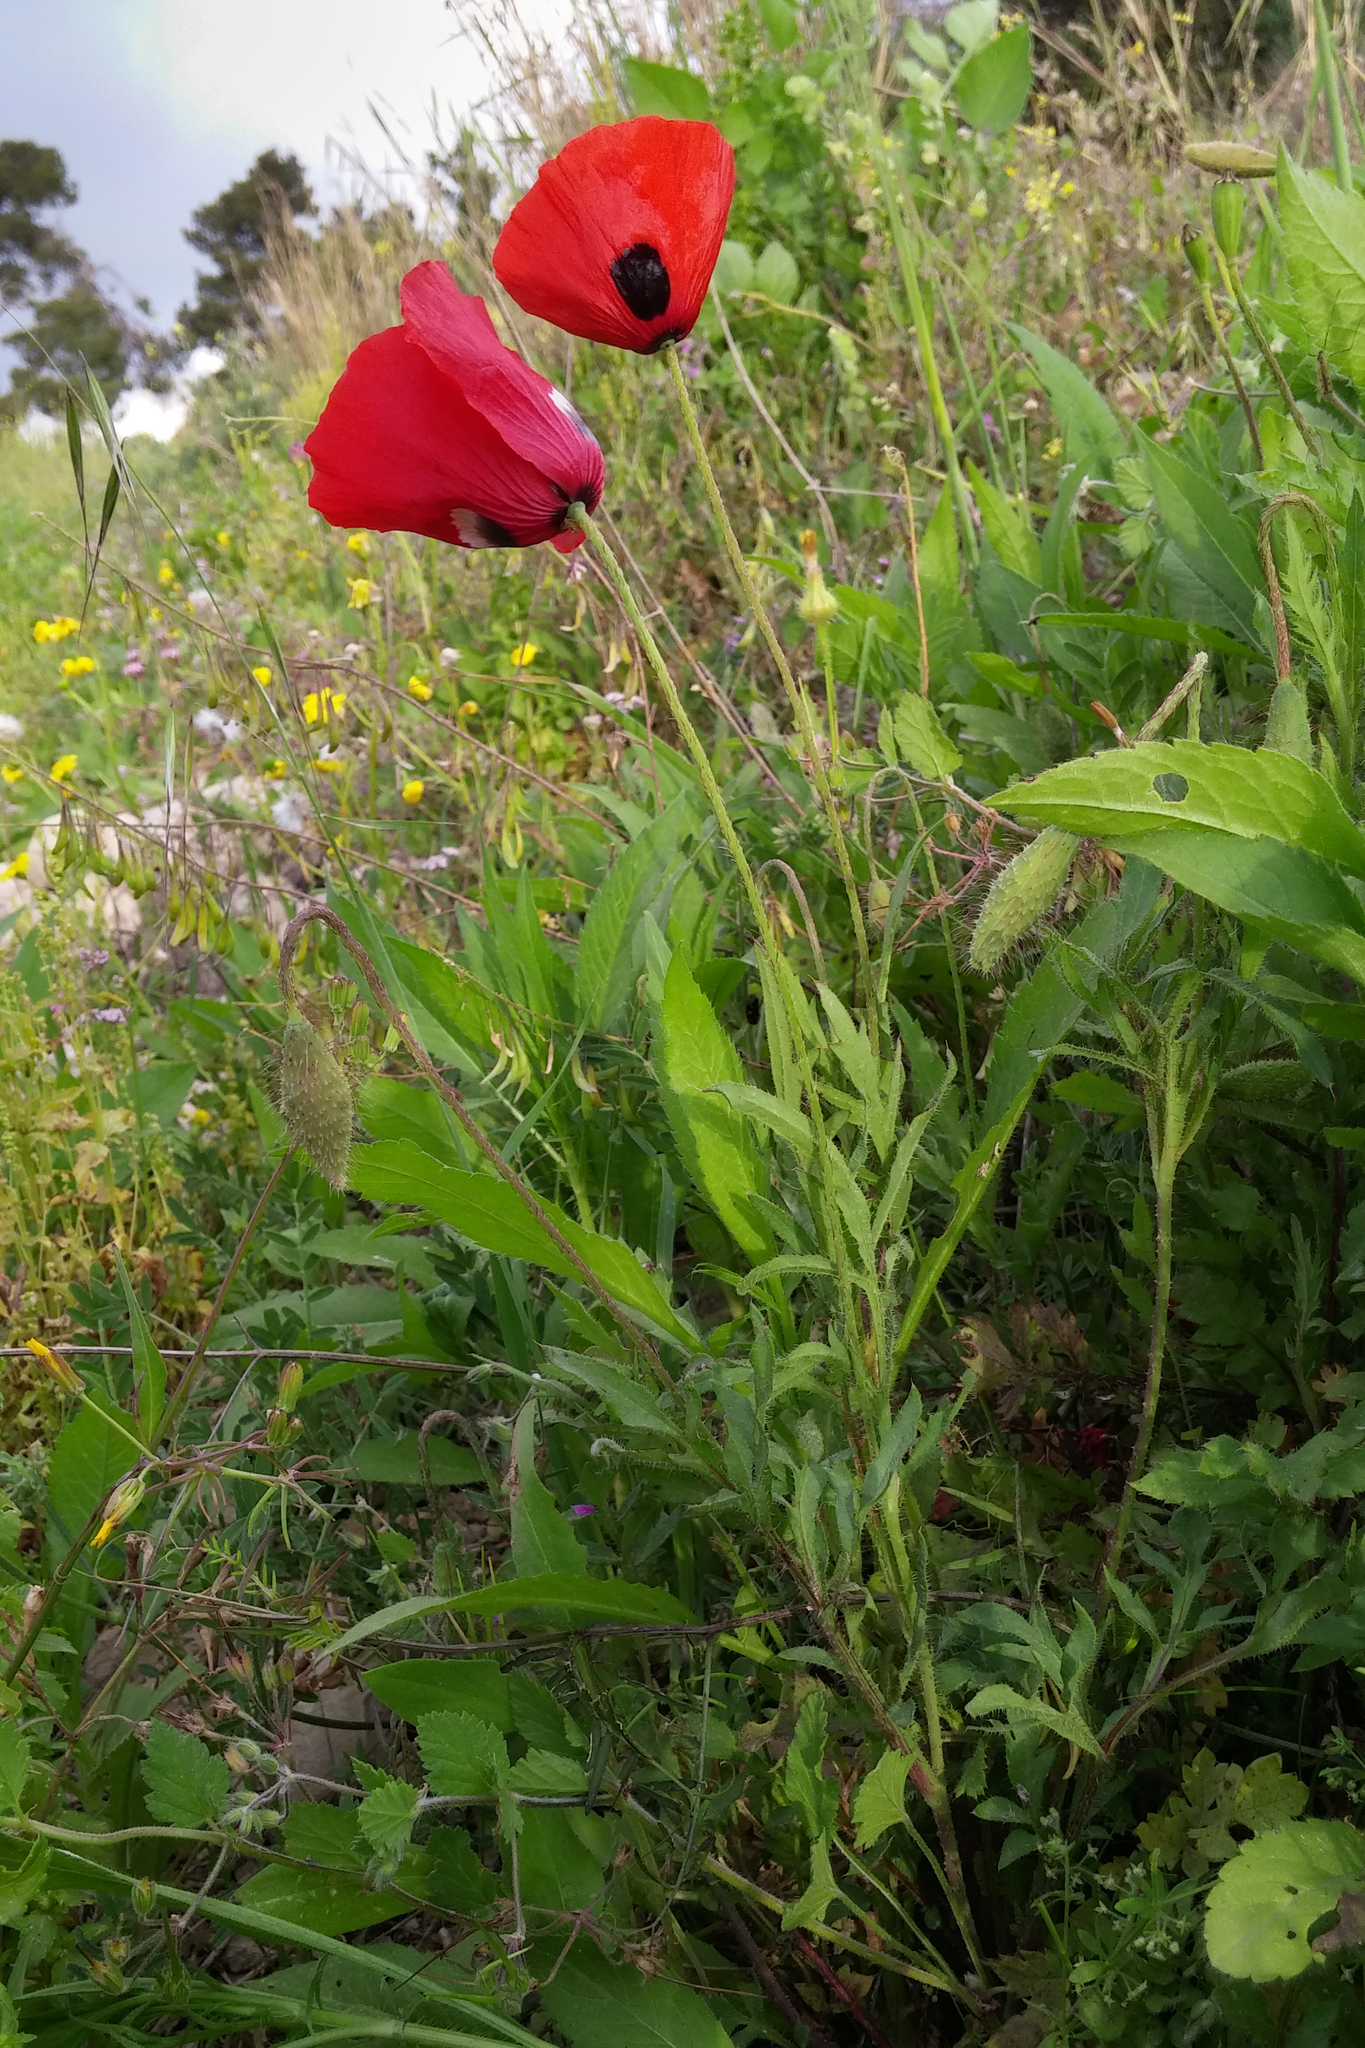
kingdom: Plantae
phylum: Tracheophyta
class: Magnoliopsida
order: Ranunculales
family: Papaveraceae
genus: Papaver
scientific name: Papaver umbonatum
